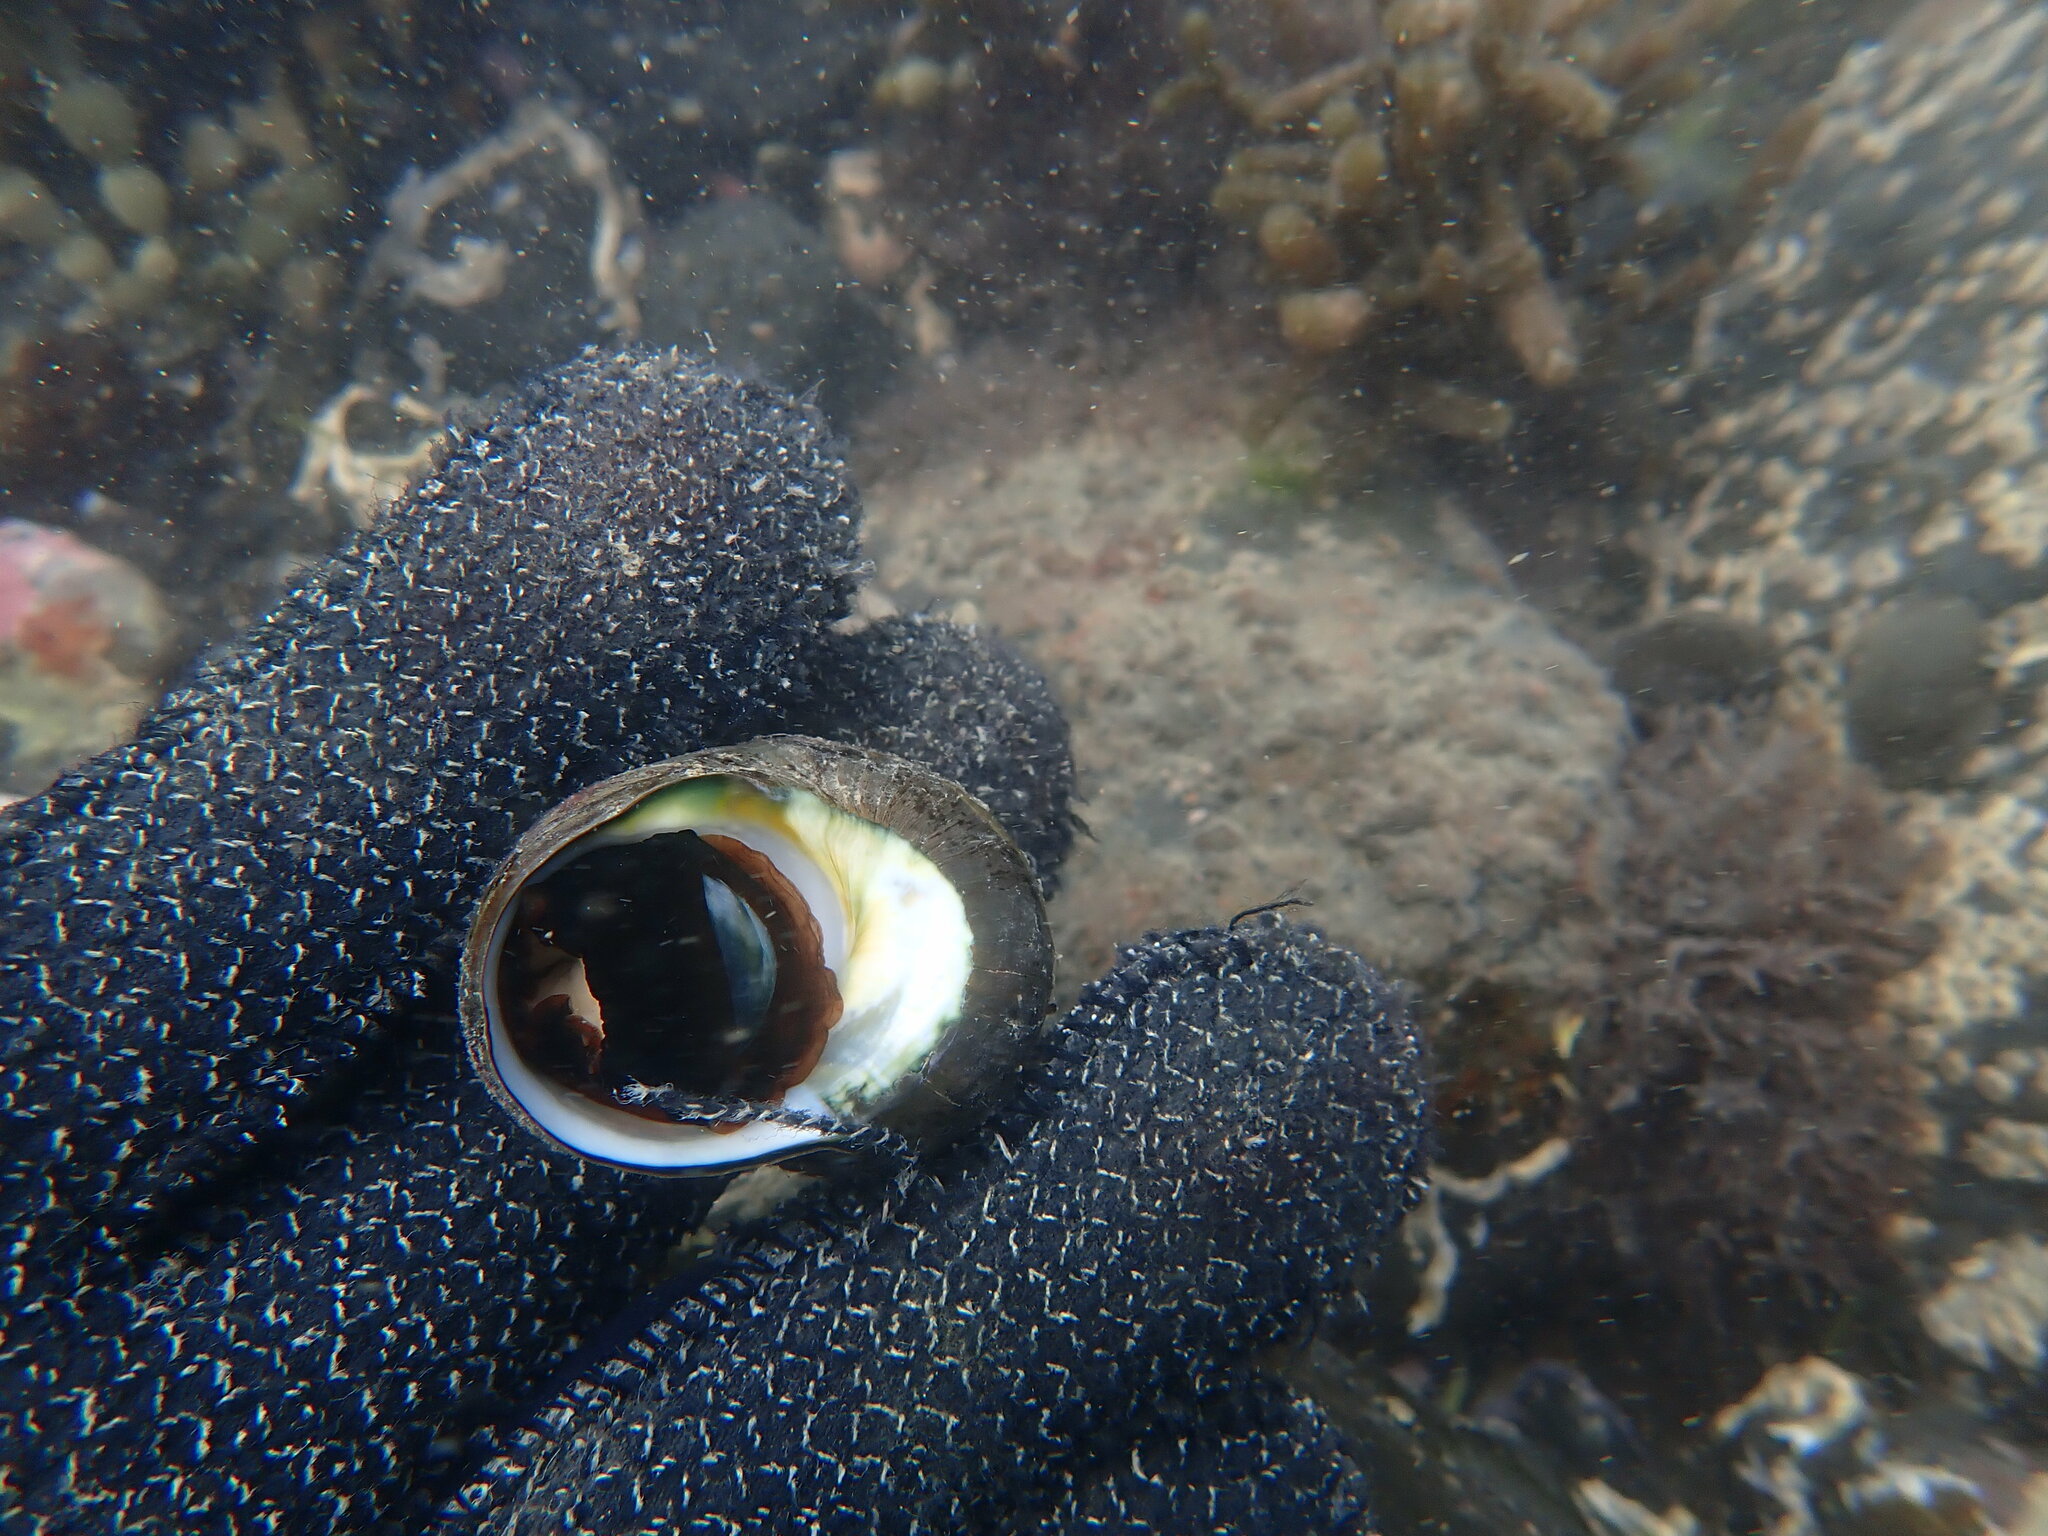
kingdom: Animalia
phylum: Mollusca
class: Gastropoda
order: Trochida
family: Turbinidae
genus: Lunella
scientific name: Lunella smaragda
